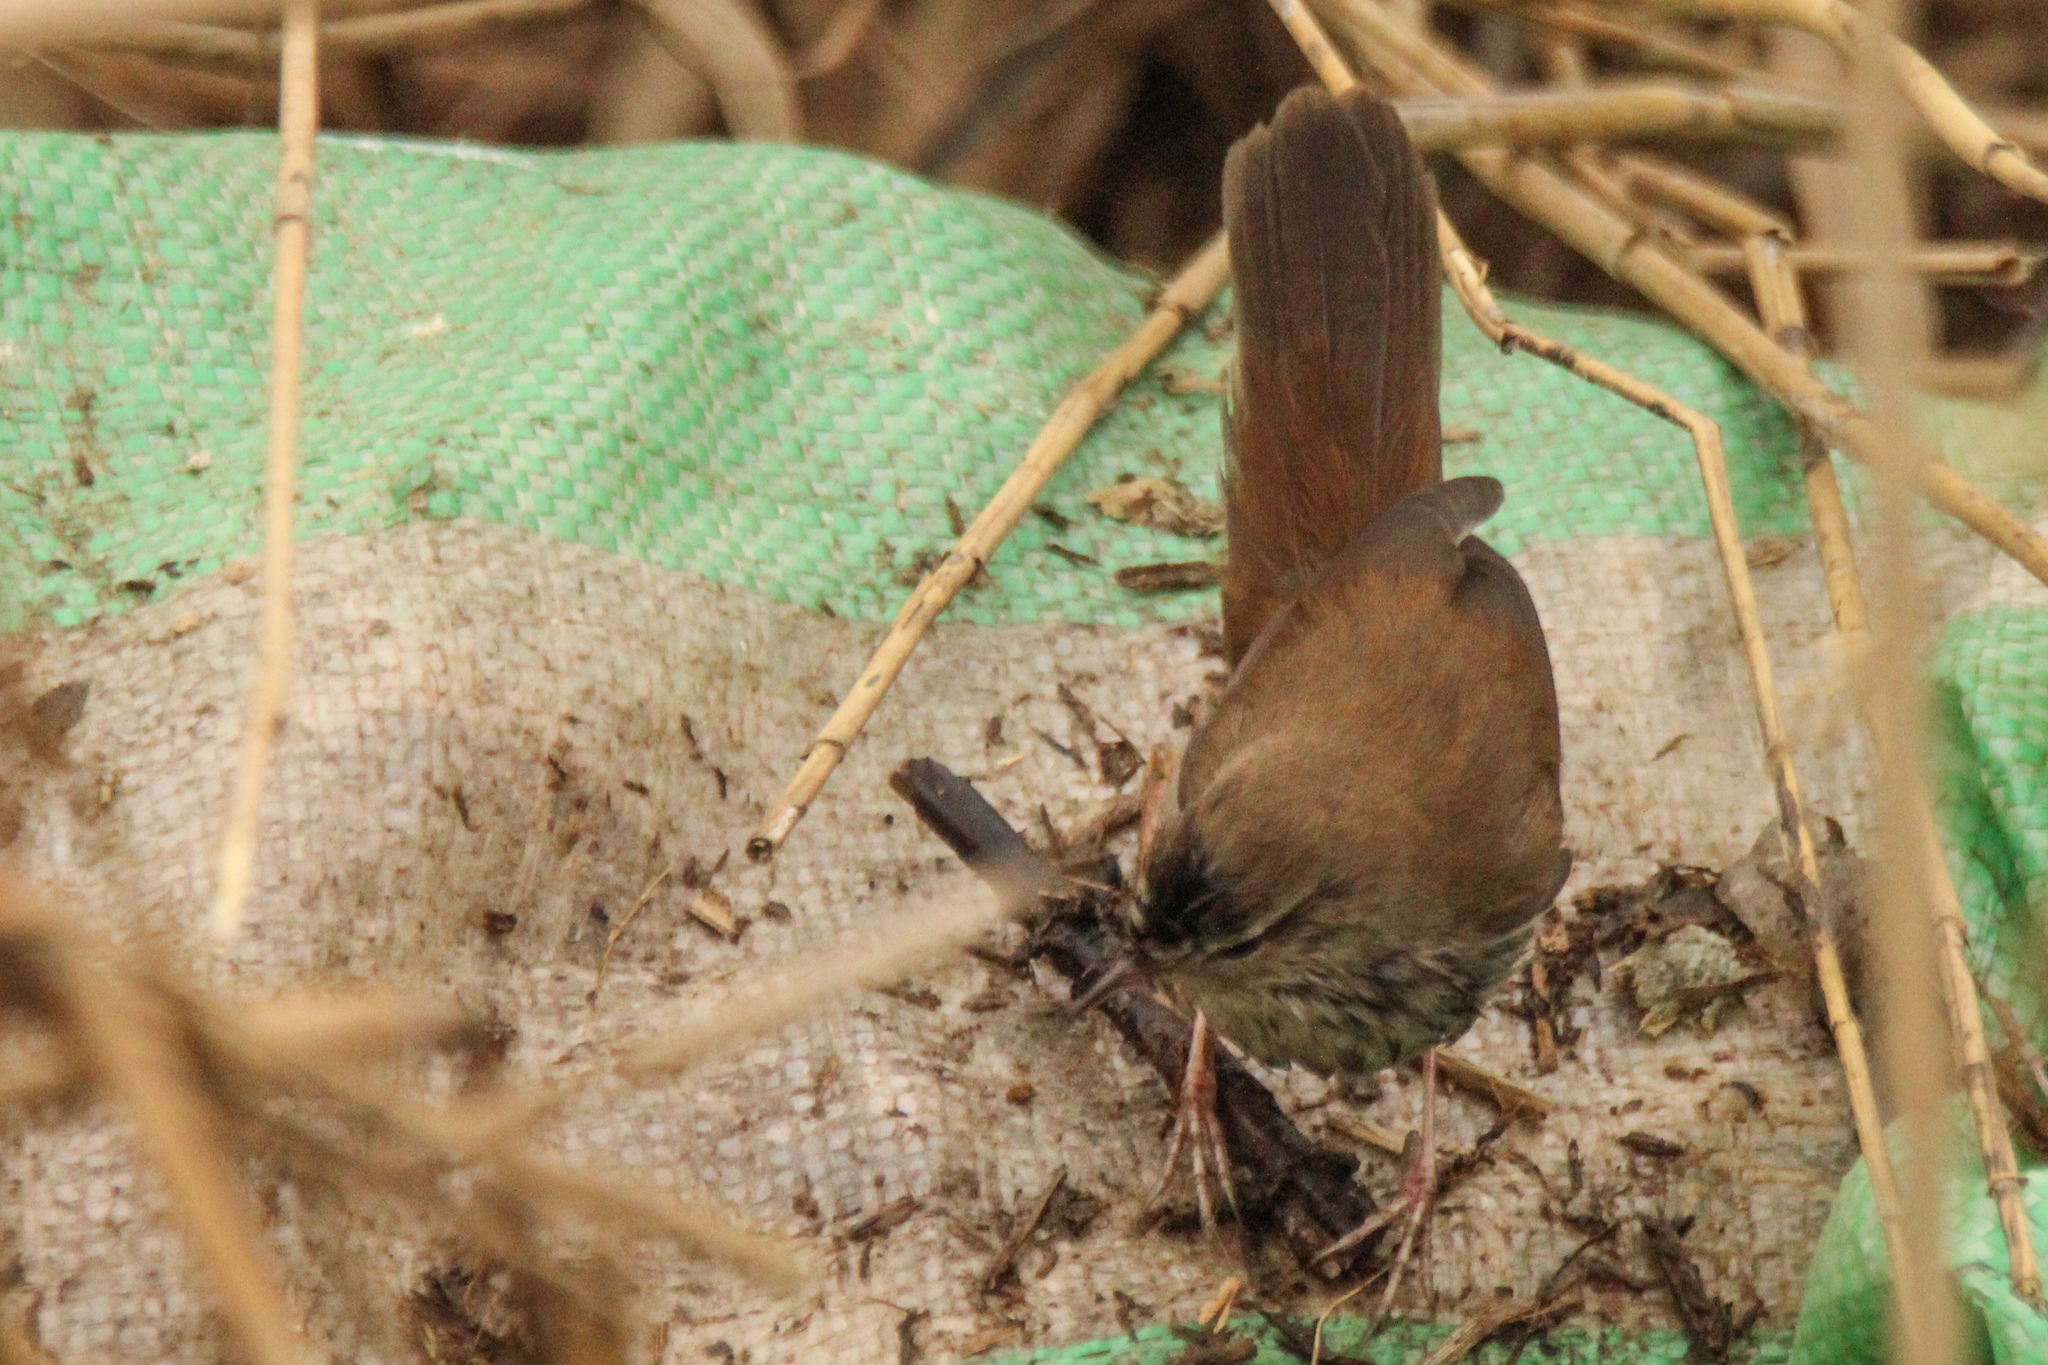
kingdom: Animalia
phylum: Chordata
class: Aves
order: Passeriformes
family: Cettiidae
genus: Cettia
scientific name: Cettia cetti
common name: Cetti's warbler
